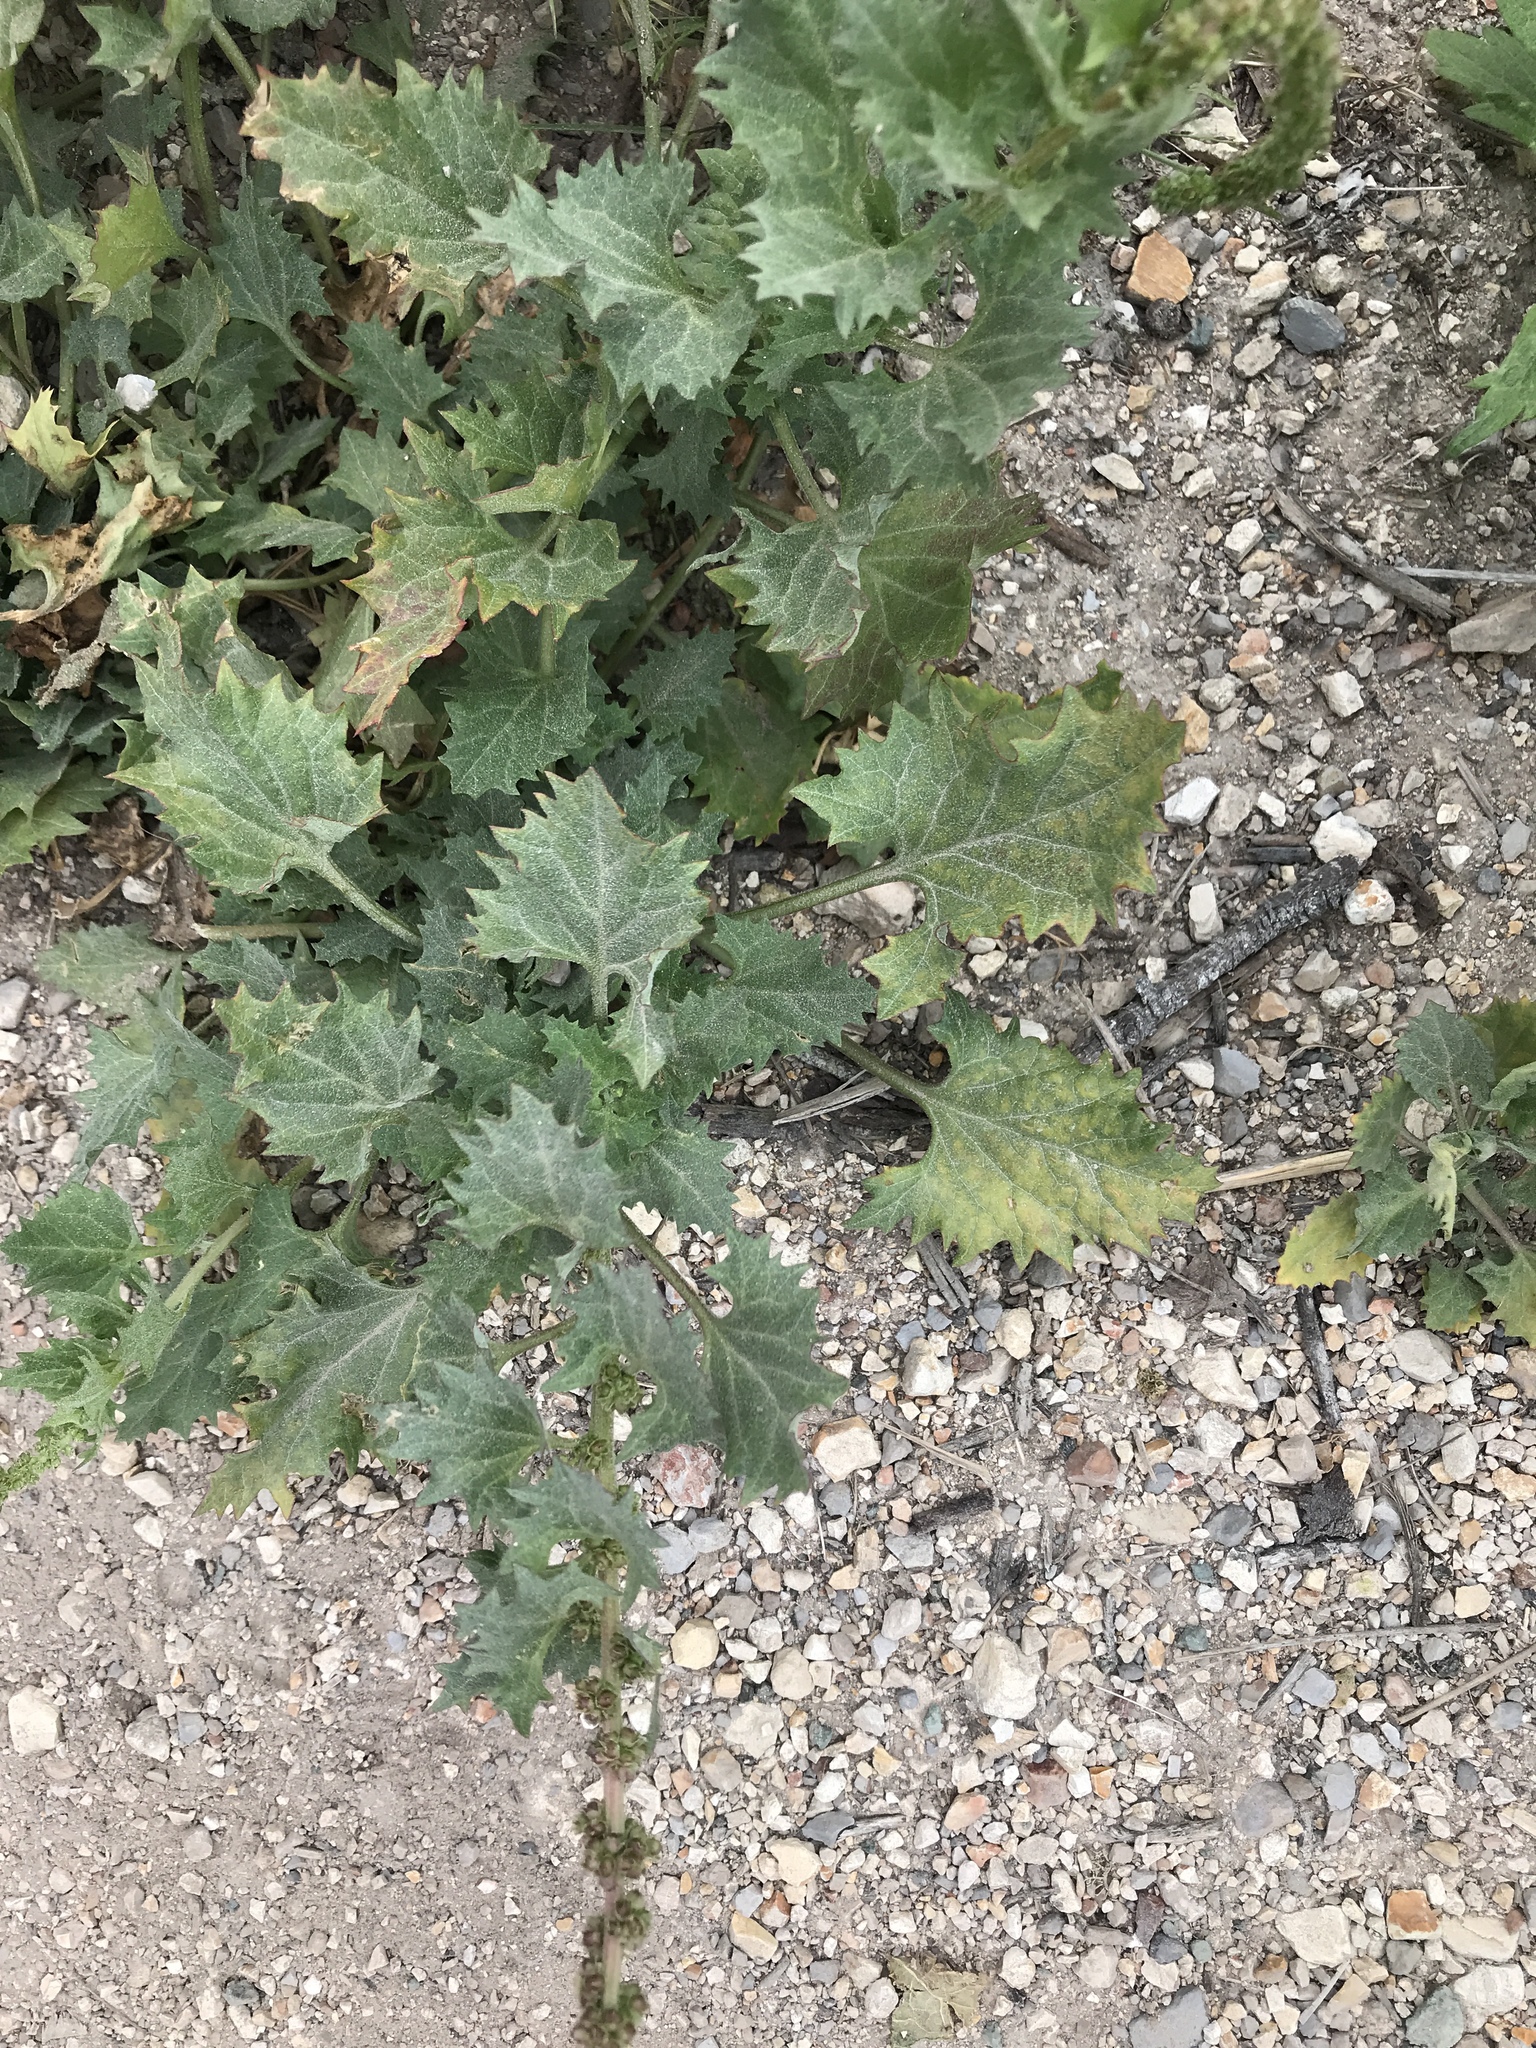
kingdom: Plantae
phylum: Tracheophyta
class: Magnoliopsida
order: Caryophyllales
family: Amaranthaceae
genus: Blitum
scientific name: Blitum californicum
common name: California goosefoot
